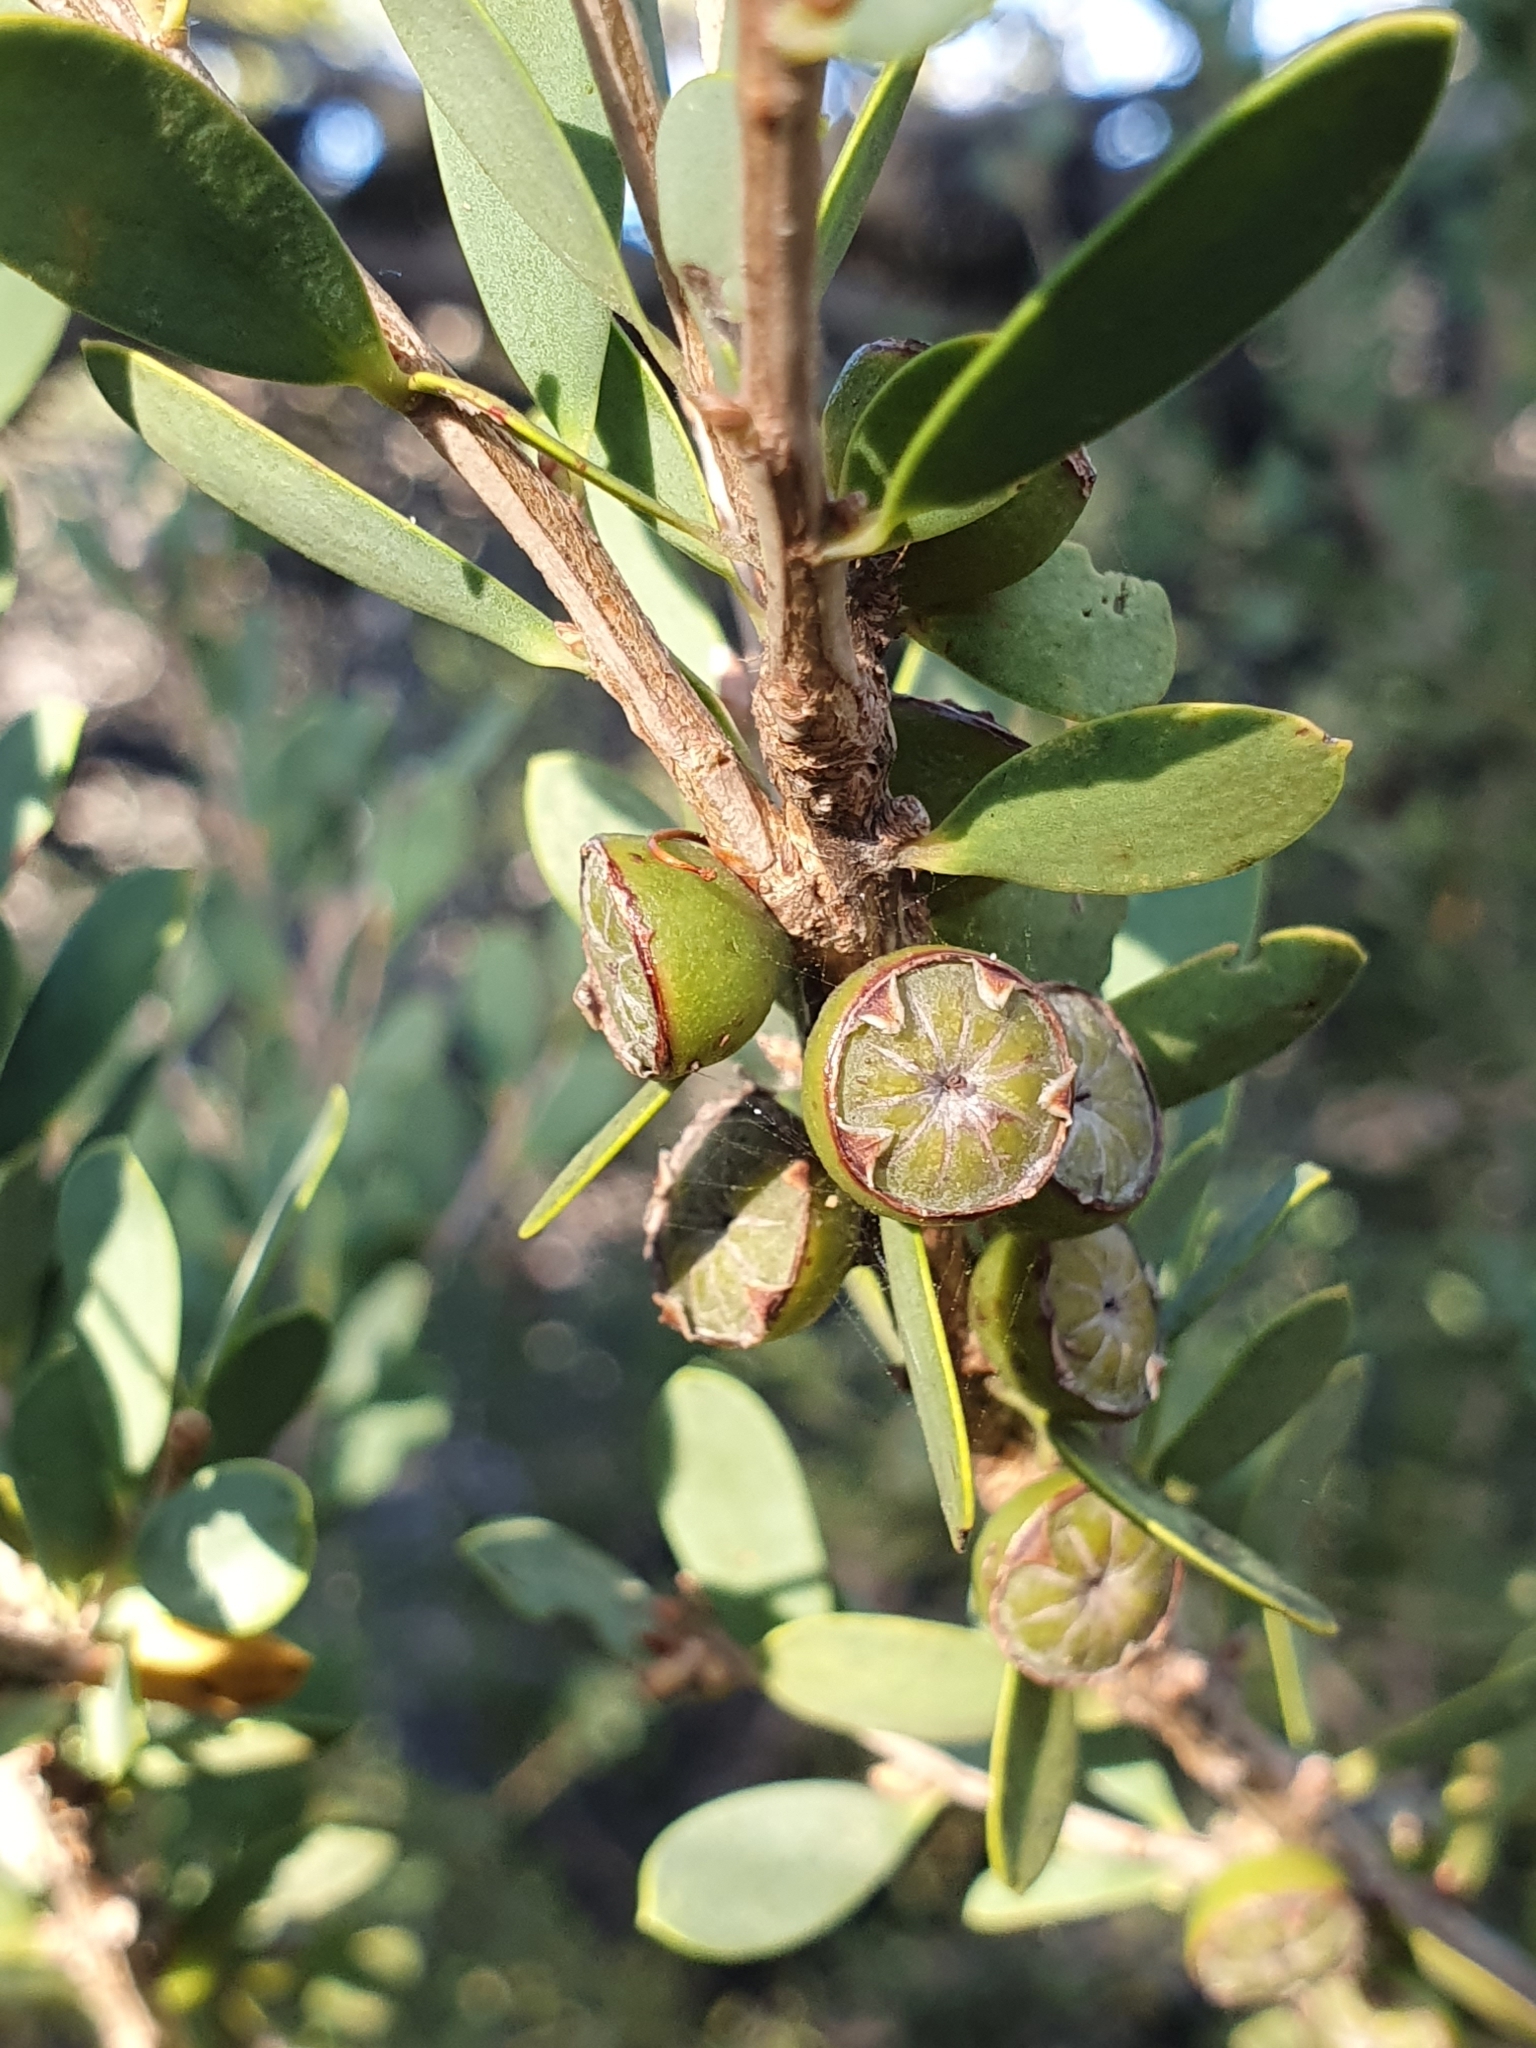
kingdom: Plantae
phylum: Tracheophyta
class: Magnoliopsida
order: Myrtales
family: Myrtaceae
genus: Leptospermum
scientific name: Leptospermum laevigatum
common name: Australian teatree
